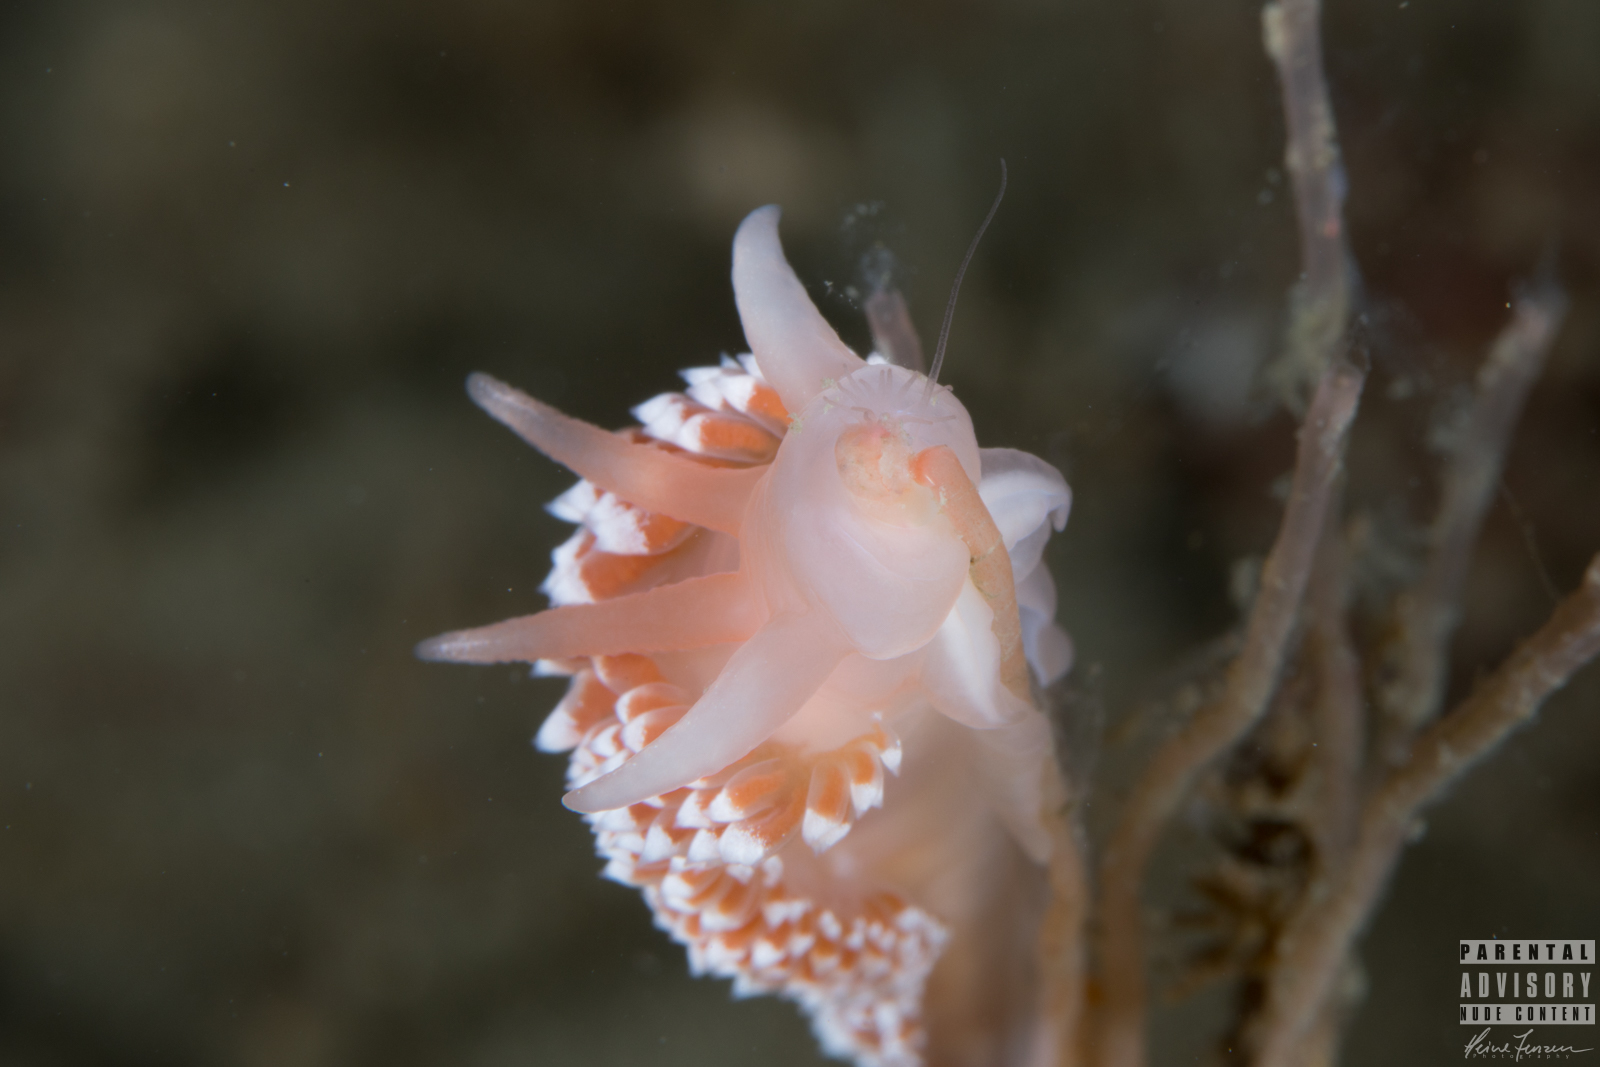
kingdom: Animalia
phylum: Mollusca
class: Gastropoda
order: Nudibranchia
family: Coryphellidae
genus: Coryphella
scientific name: Coryphella verrucosa
